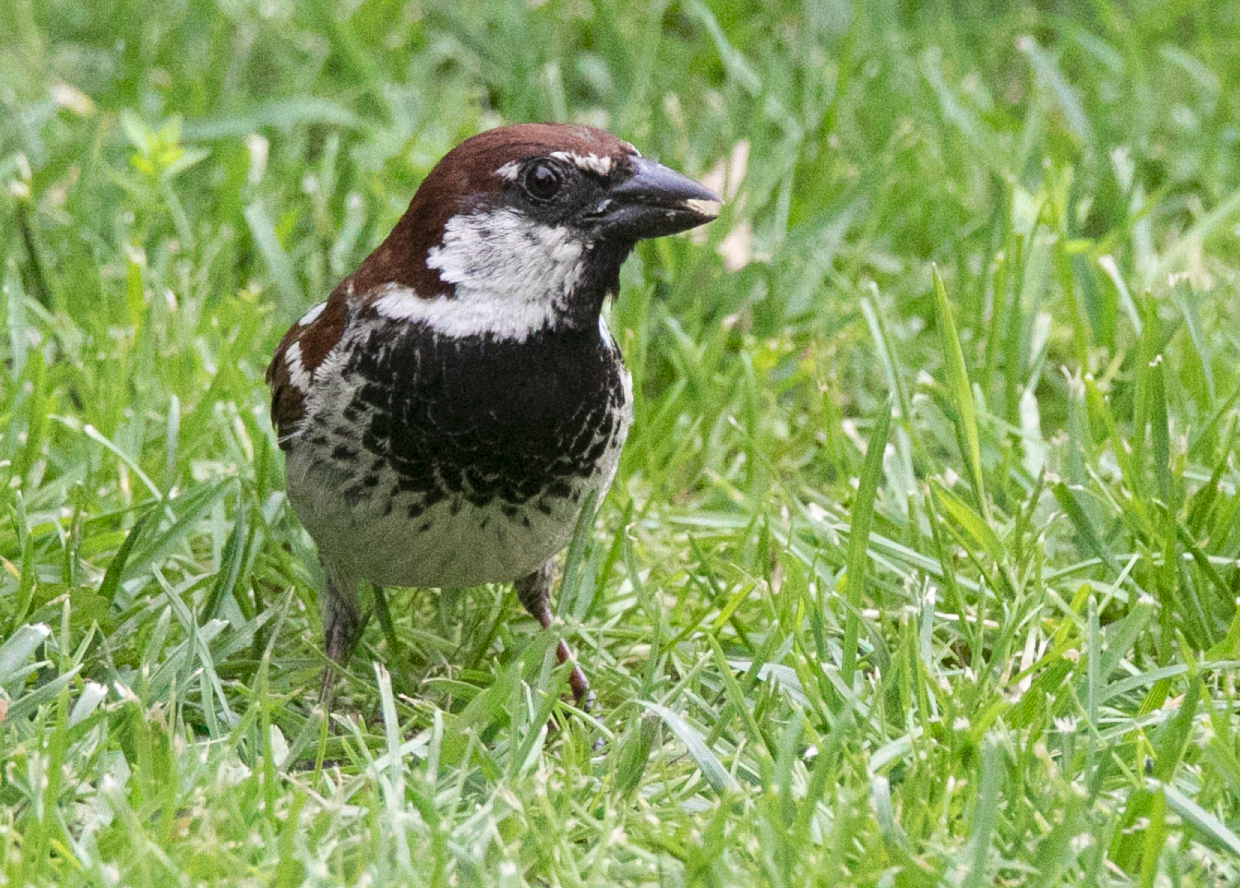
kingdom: Animalia
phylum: Chordata
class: Aves
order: Passeriformes
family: Passeridae
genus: Passer
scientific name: Passer italiae
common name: Italian sparrow
